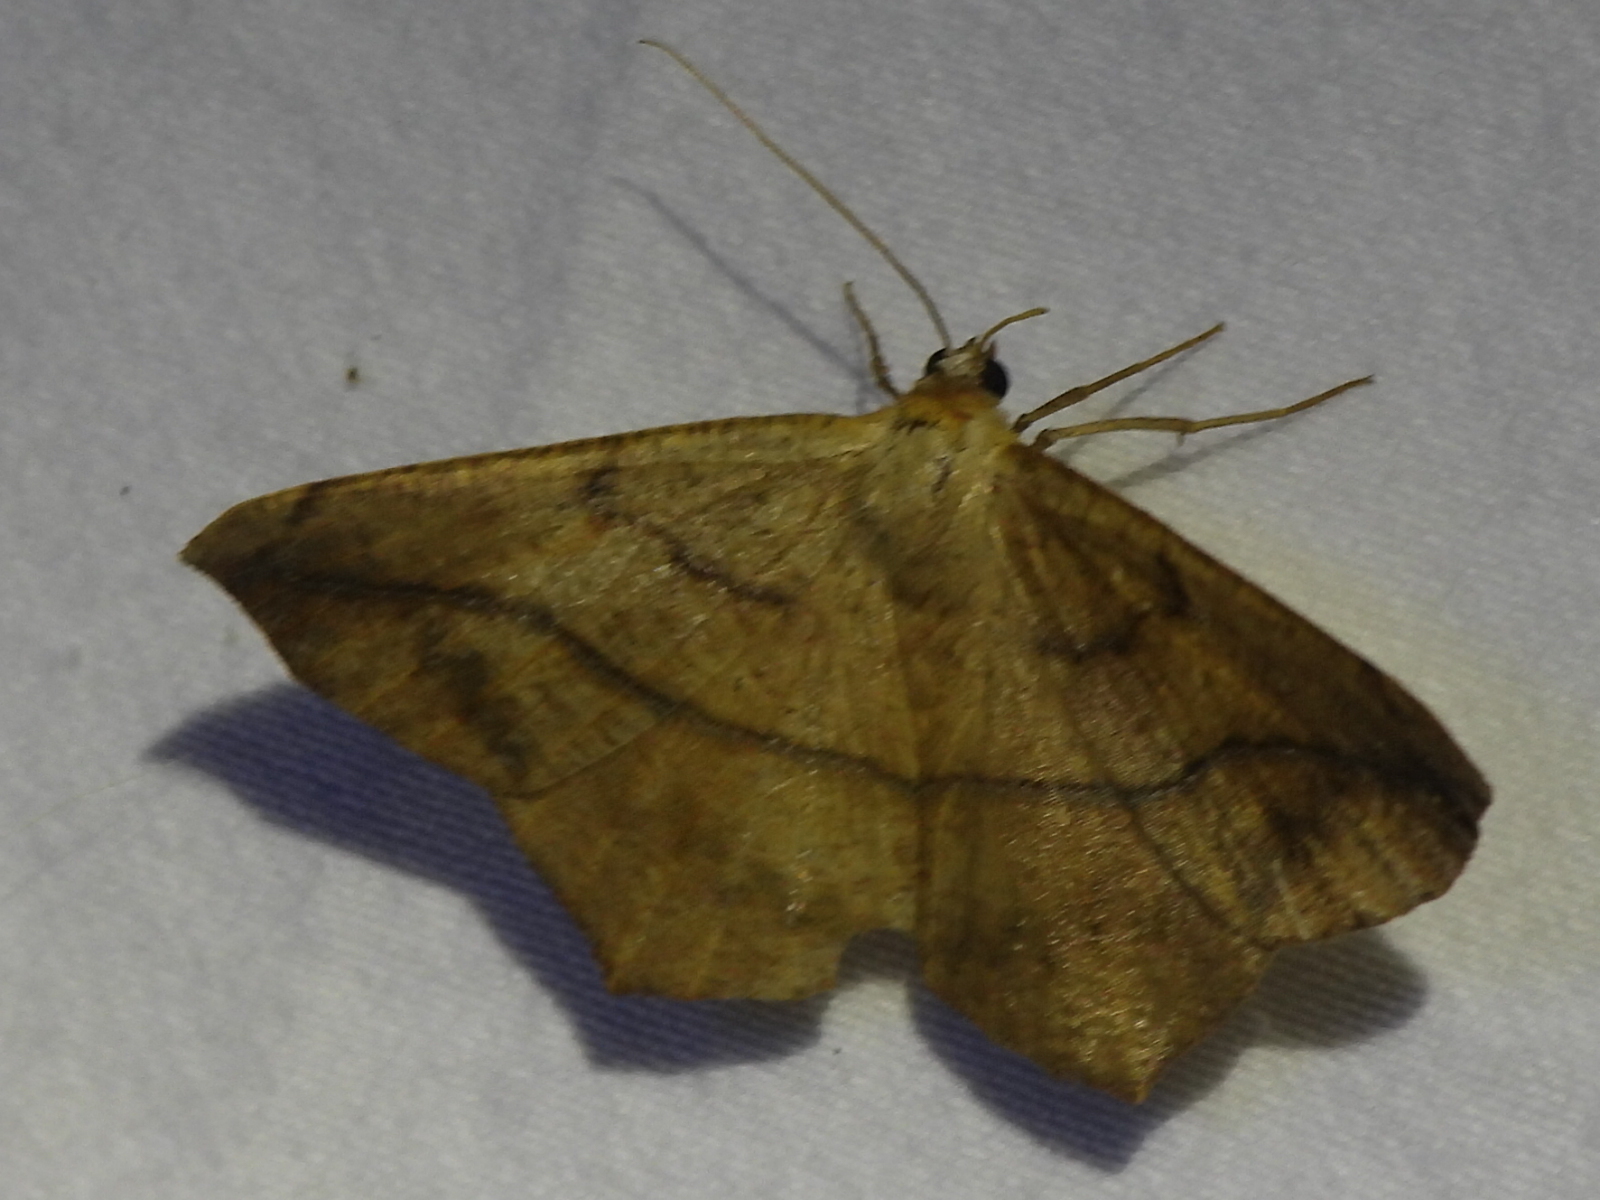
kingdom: Animalia
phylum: Arthropoda
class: Insecta
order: Lepidoptera
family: Geometridae
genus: Prochoerodes
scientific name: Prochoerodes lineola
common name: Large maple spanworm
